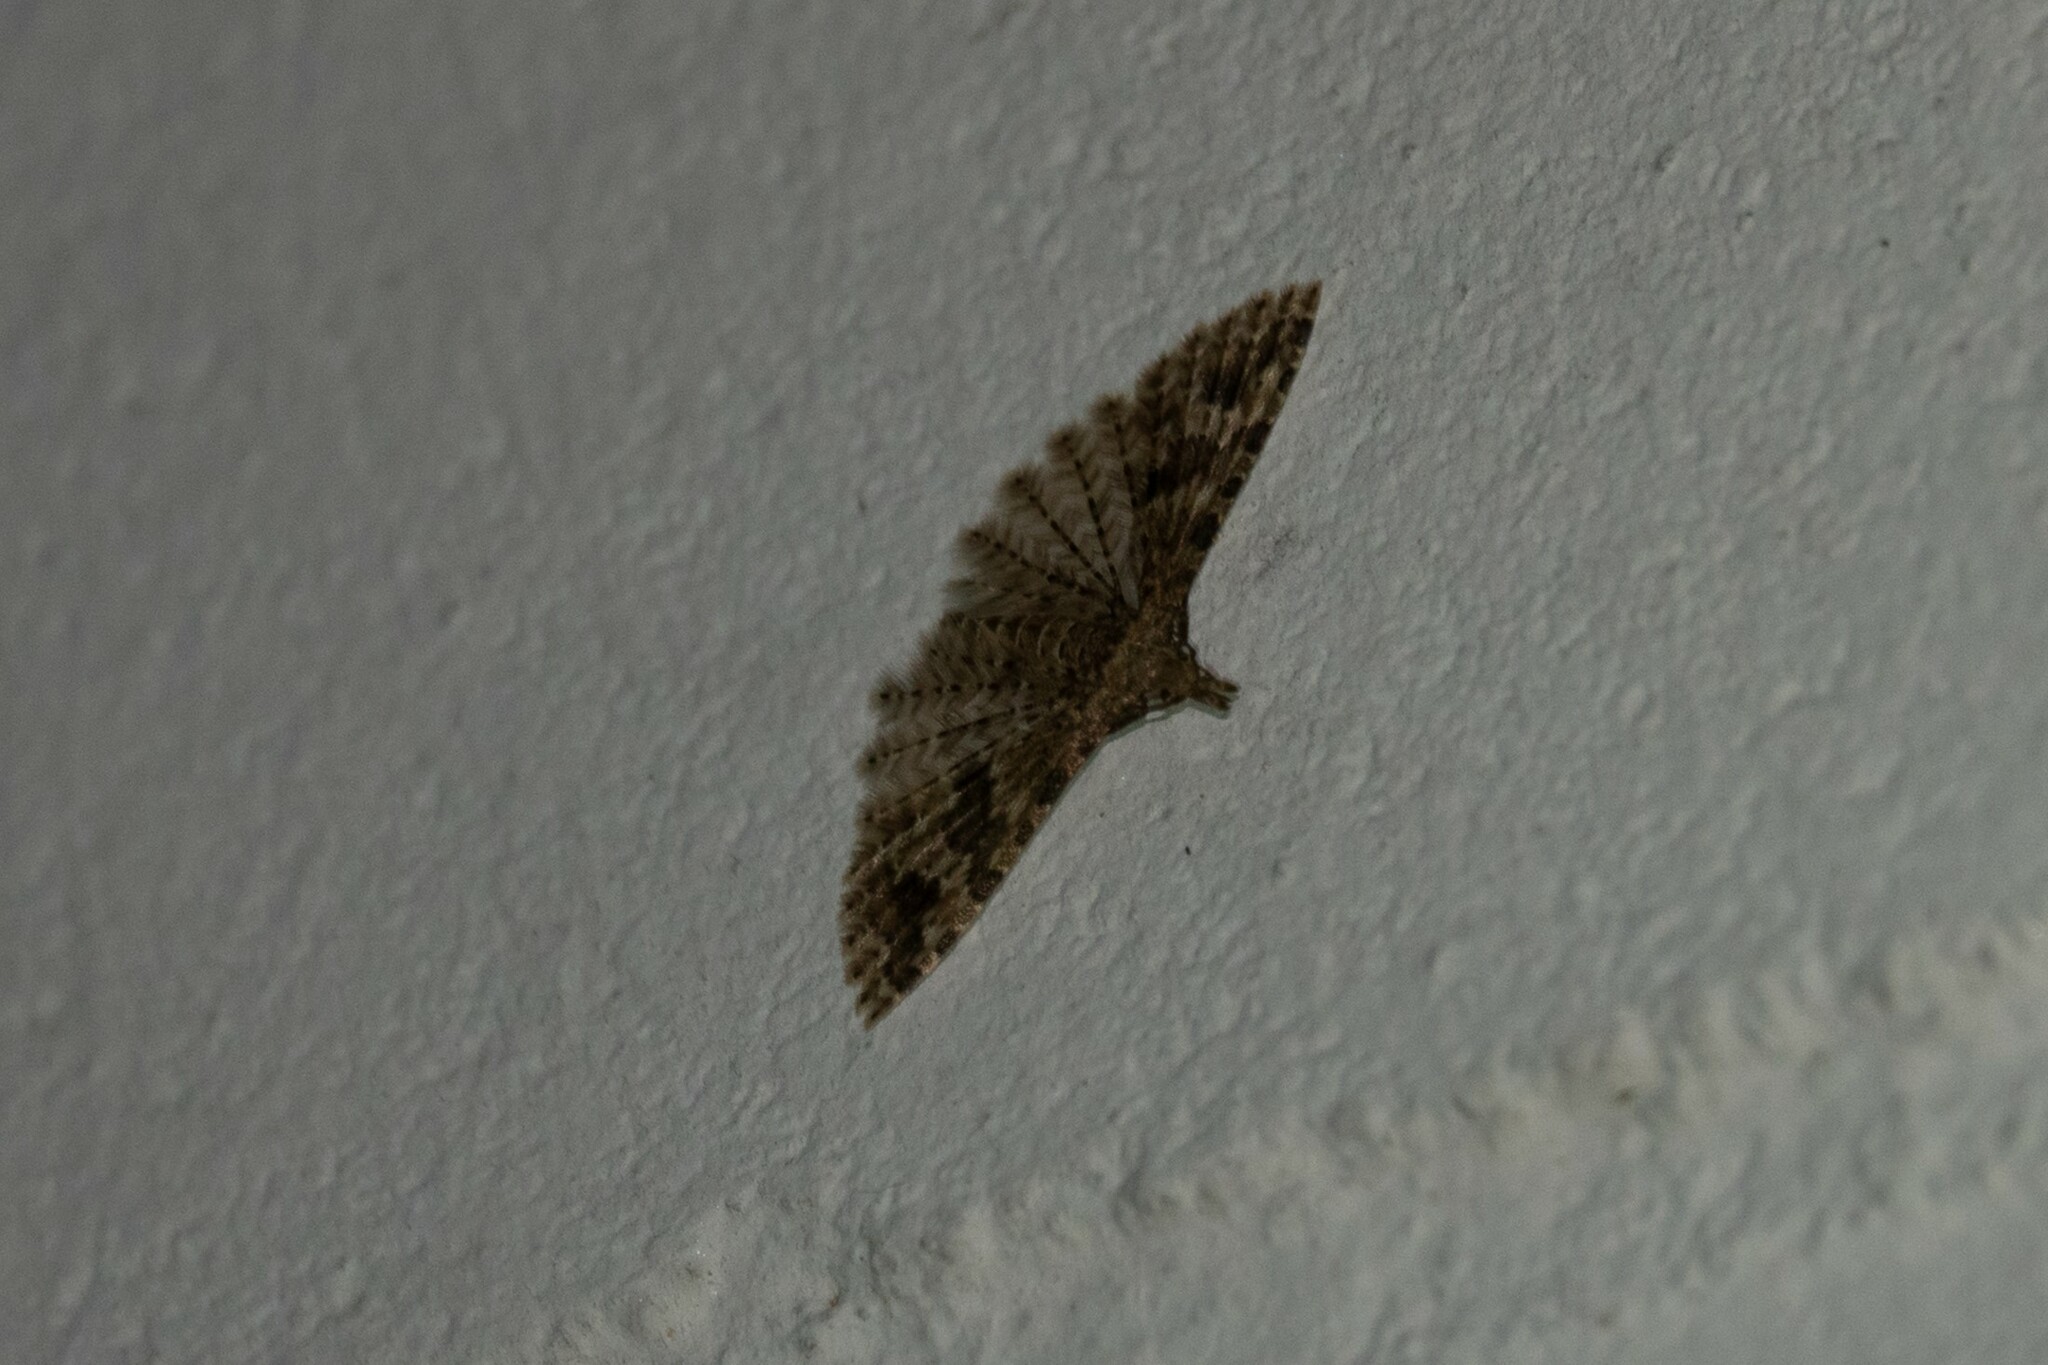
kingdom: Animalia
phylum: Arthropoda
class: Insecta
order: Lepidoptera
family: Alucitidae
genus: Alucita
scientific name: Alucita hexadactyla
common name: Twenty-plume moth
